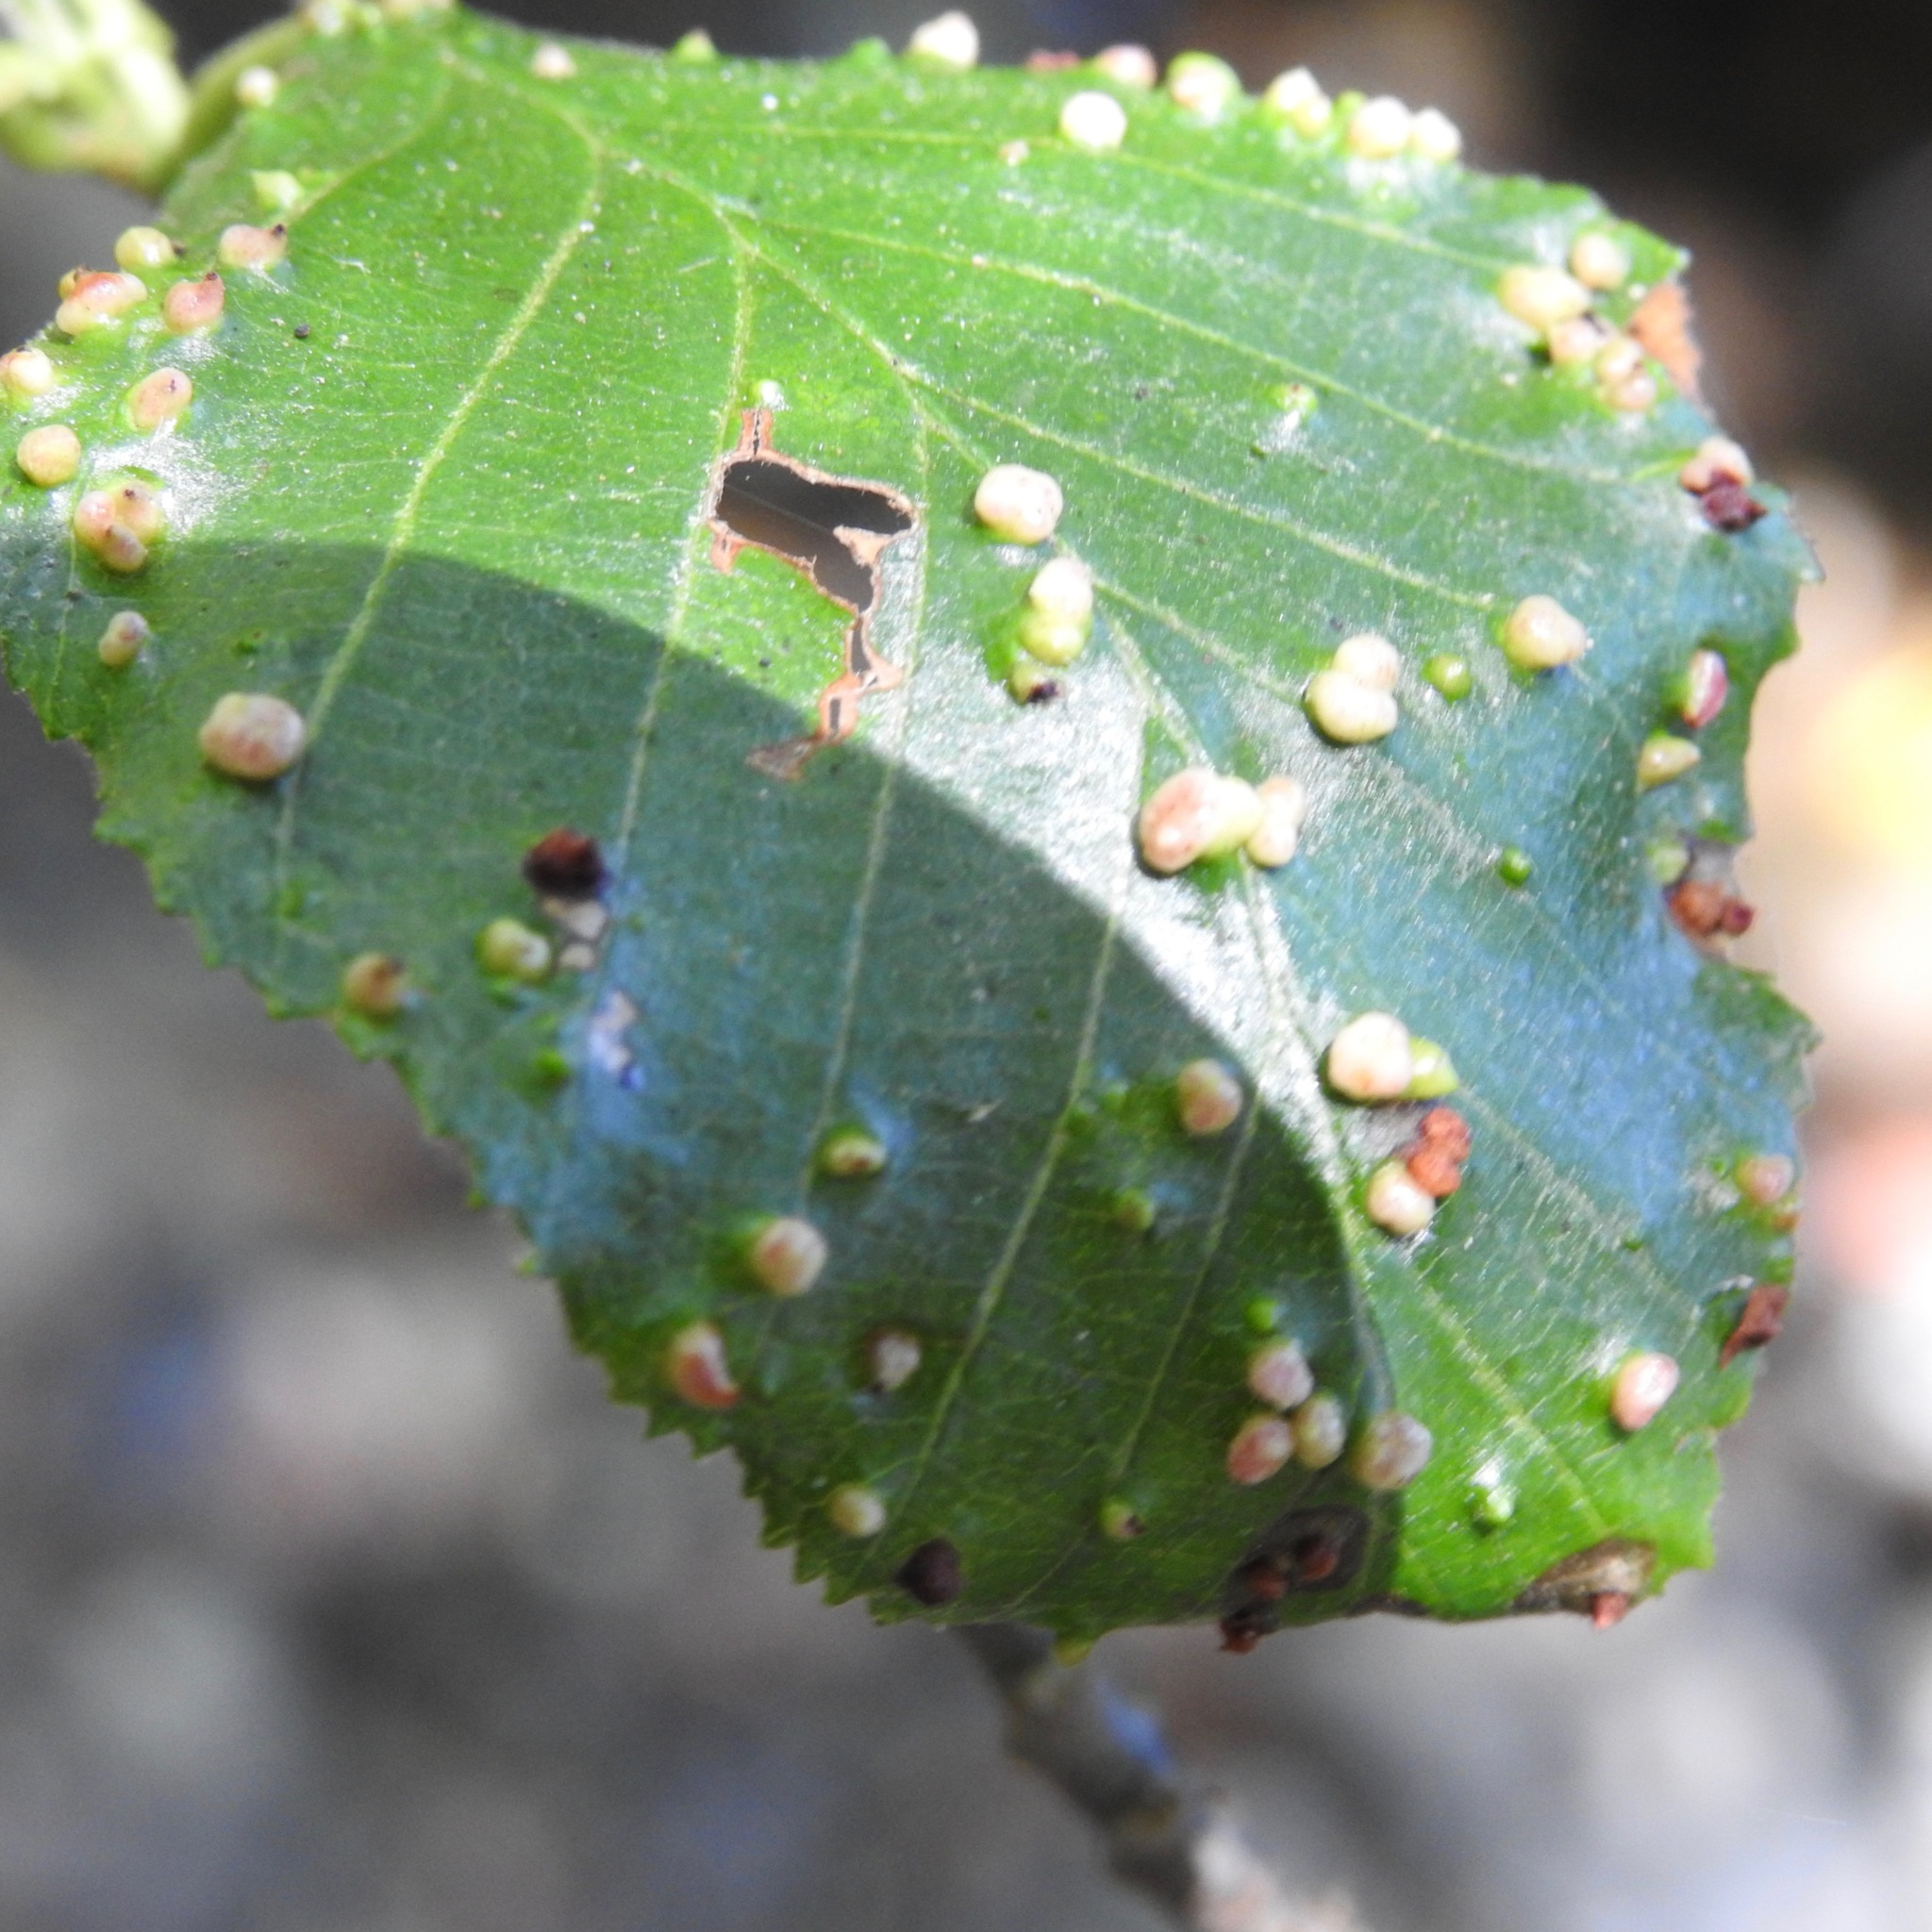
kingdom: Animalia
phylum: Arthropoda
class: Arachnida
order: Trombidiformes
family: Eriophyidae
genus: Eriophyes
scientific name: Eriophyes laevis
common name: Alder leaf gall mite
